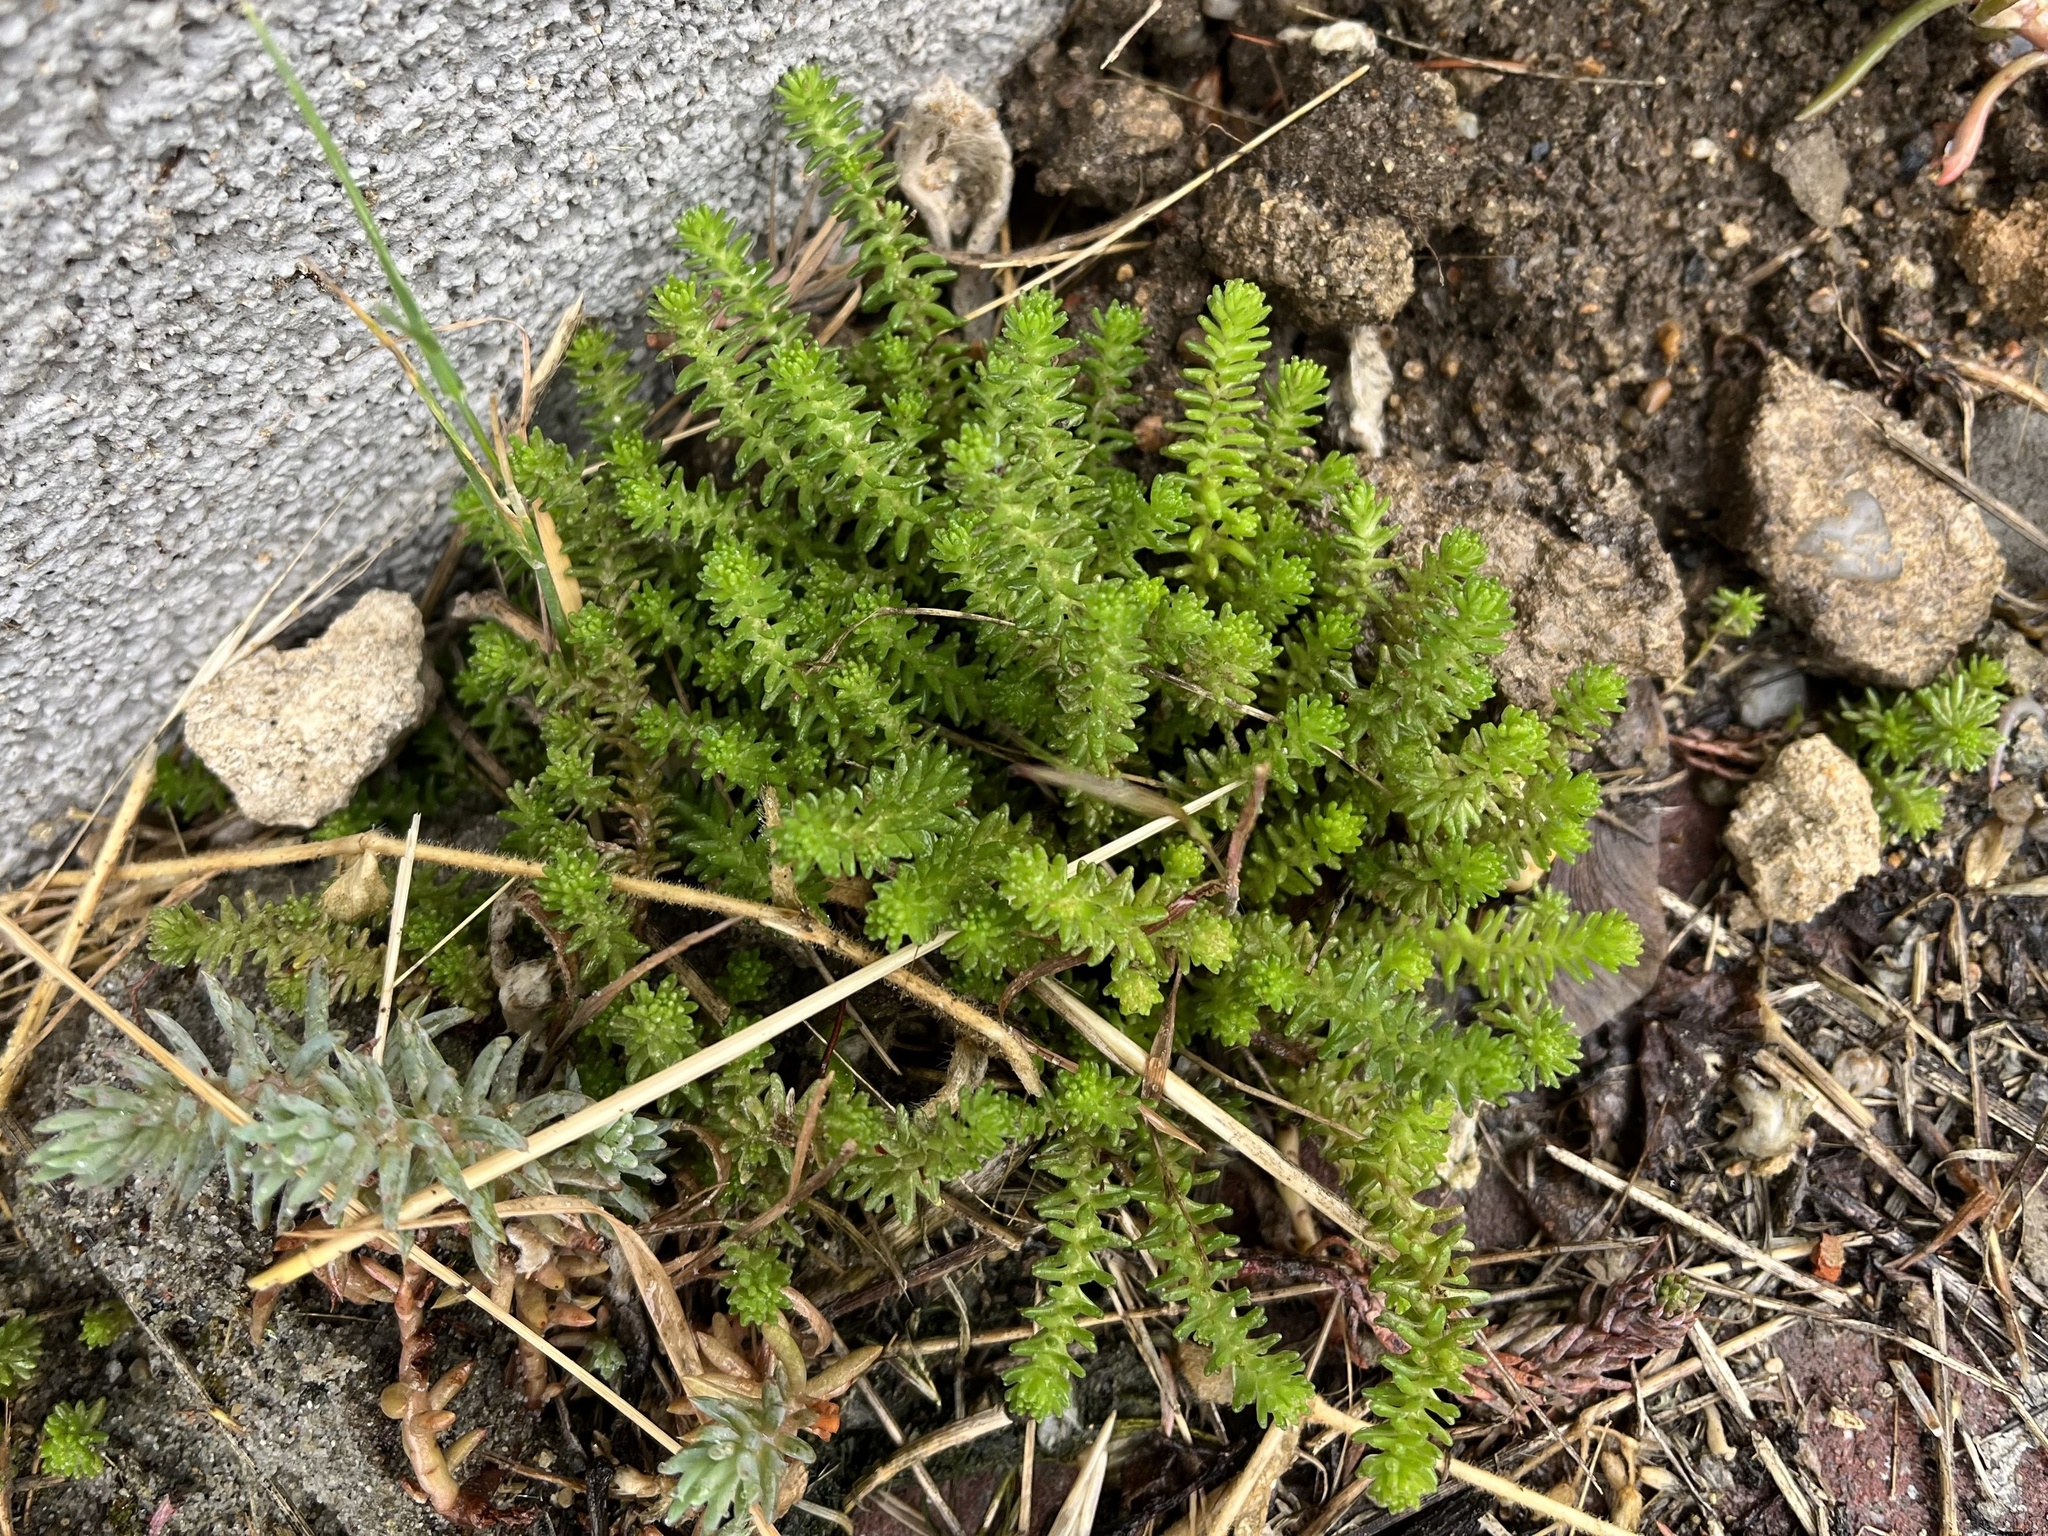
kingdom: Plantae
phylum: Tracheophyta
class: Magnoliopsida
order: Saxifragales
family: Crassulaceae
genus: Sedum
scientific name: Sedum sexangulare
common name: Tasteless stonecrop
